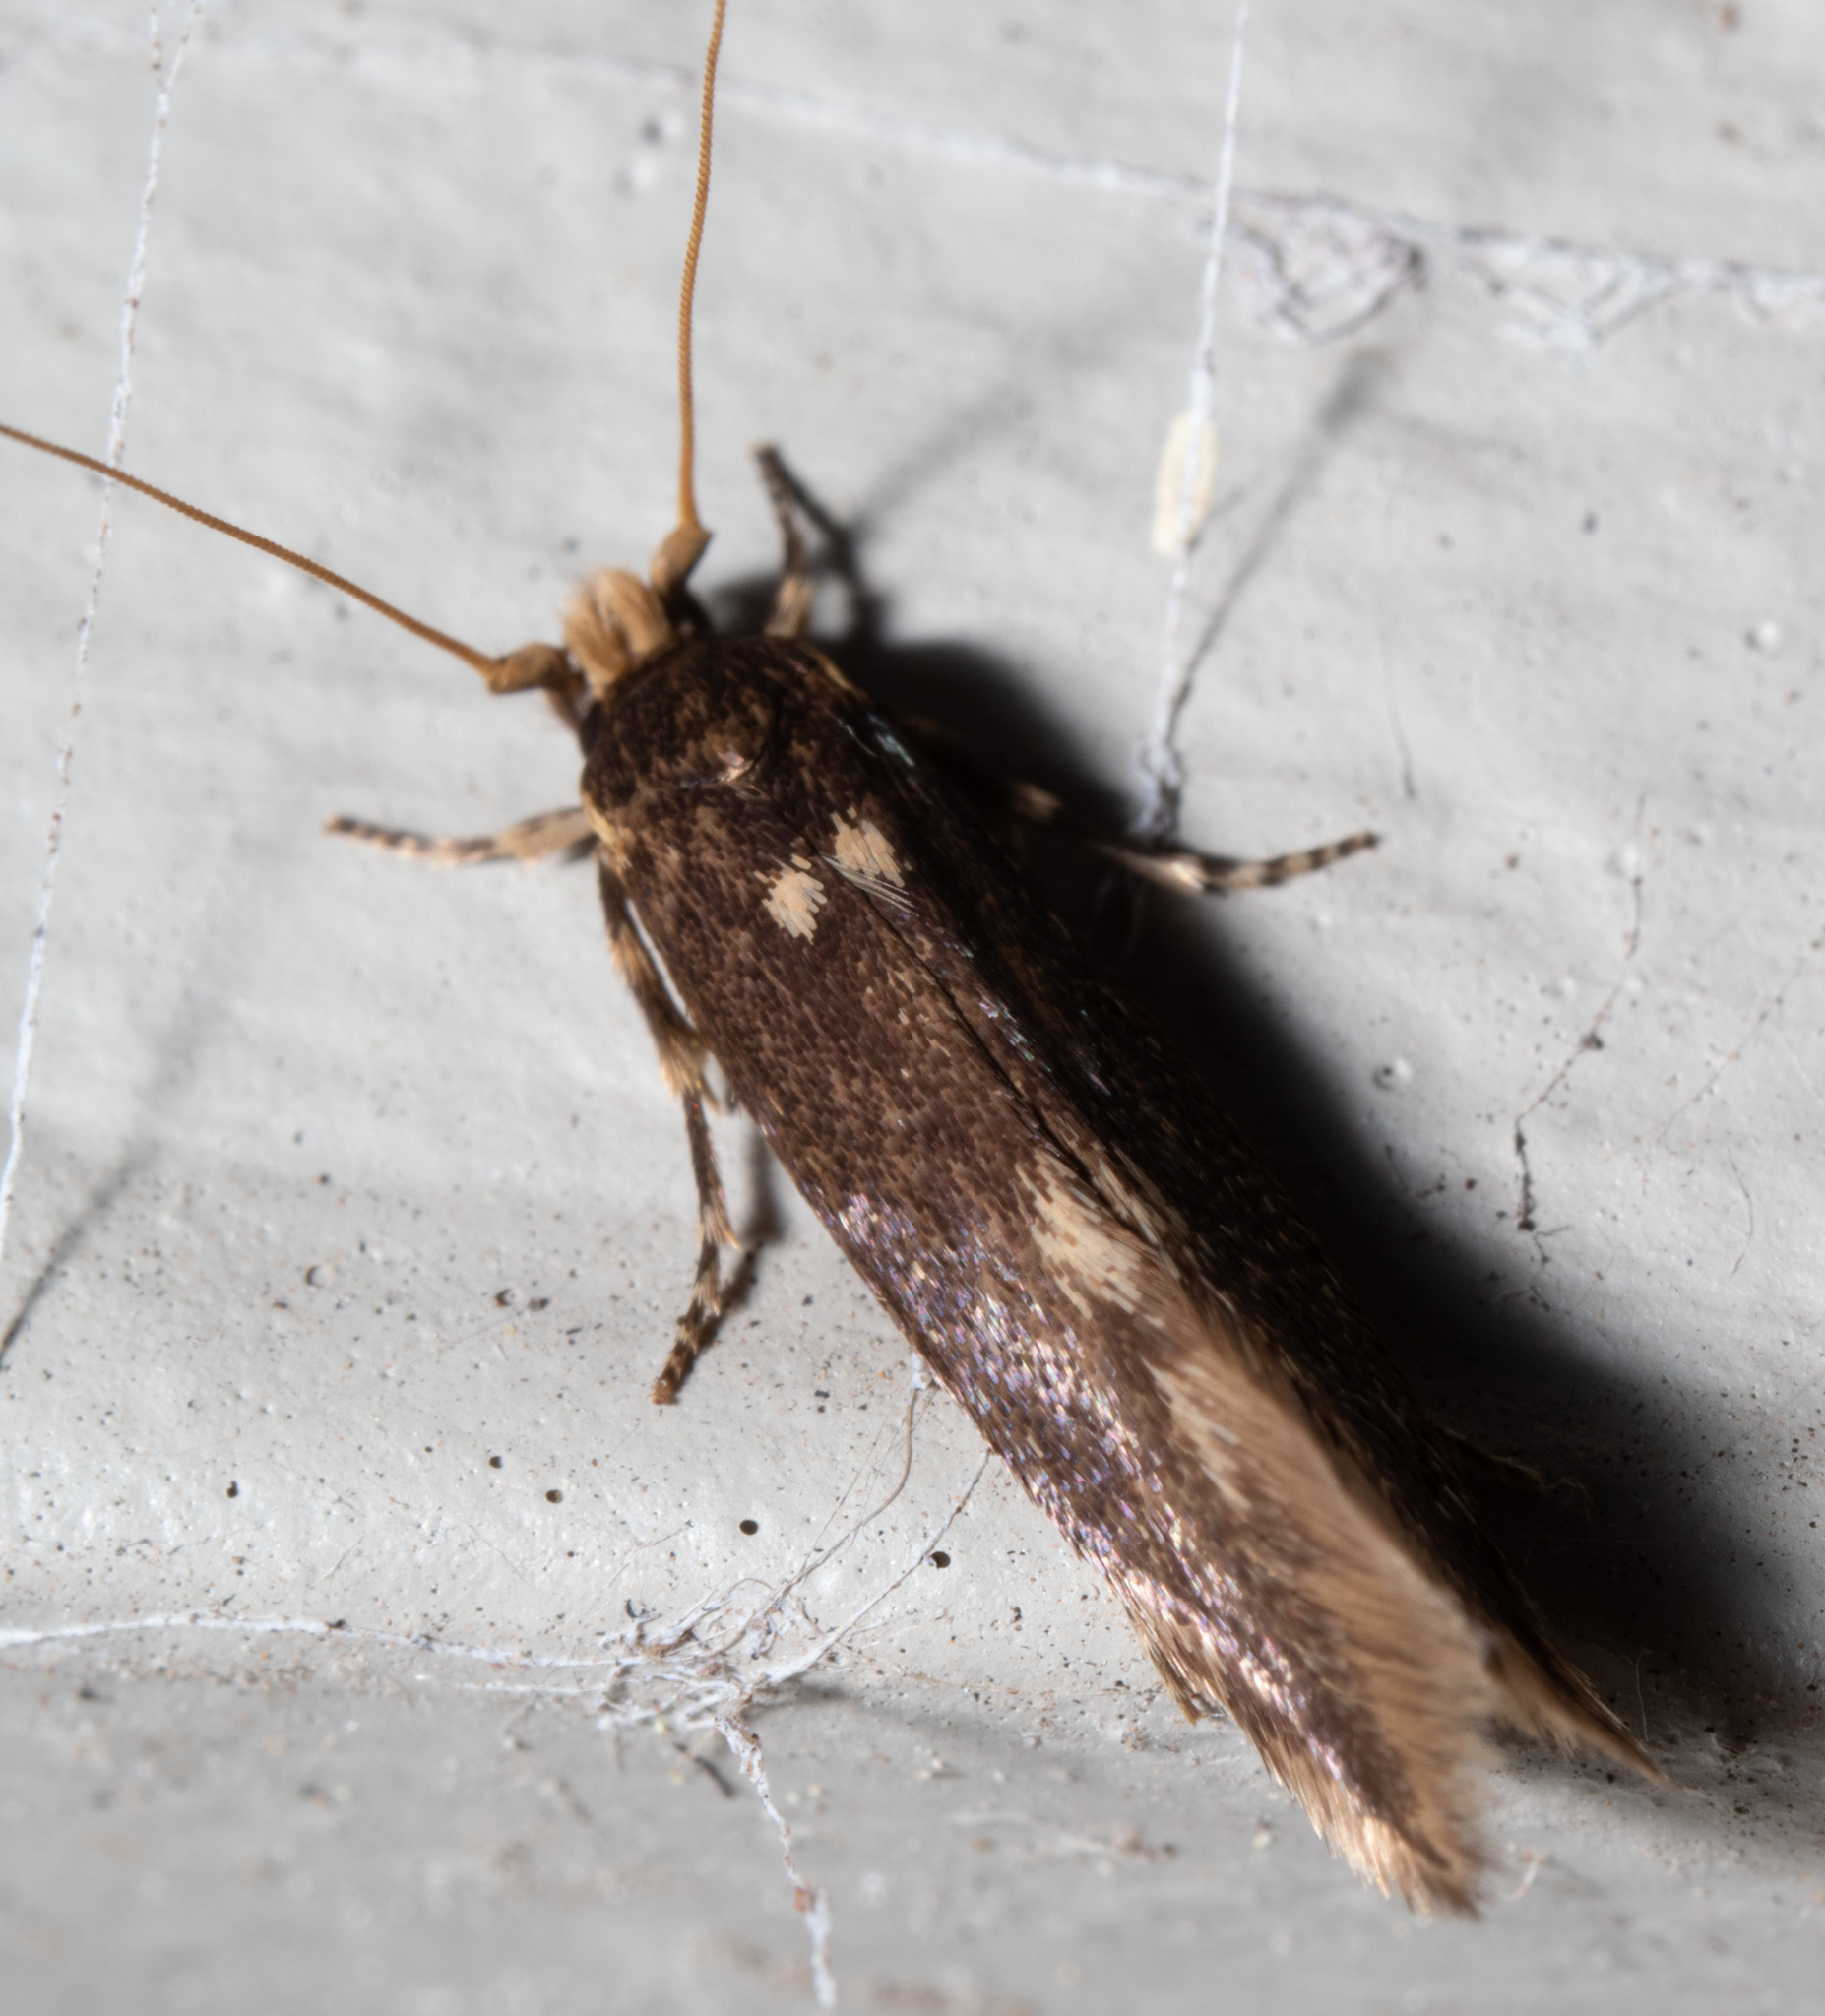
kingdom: Animalia
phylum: Arthropoda
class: Insecta
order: Lepidoptera
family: Tineidae
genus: Opogona
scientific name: Opogona omoscopa
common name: Moth
